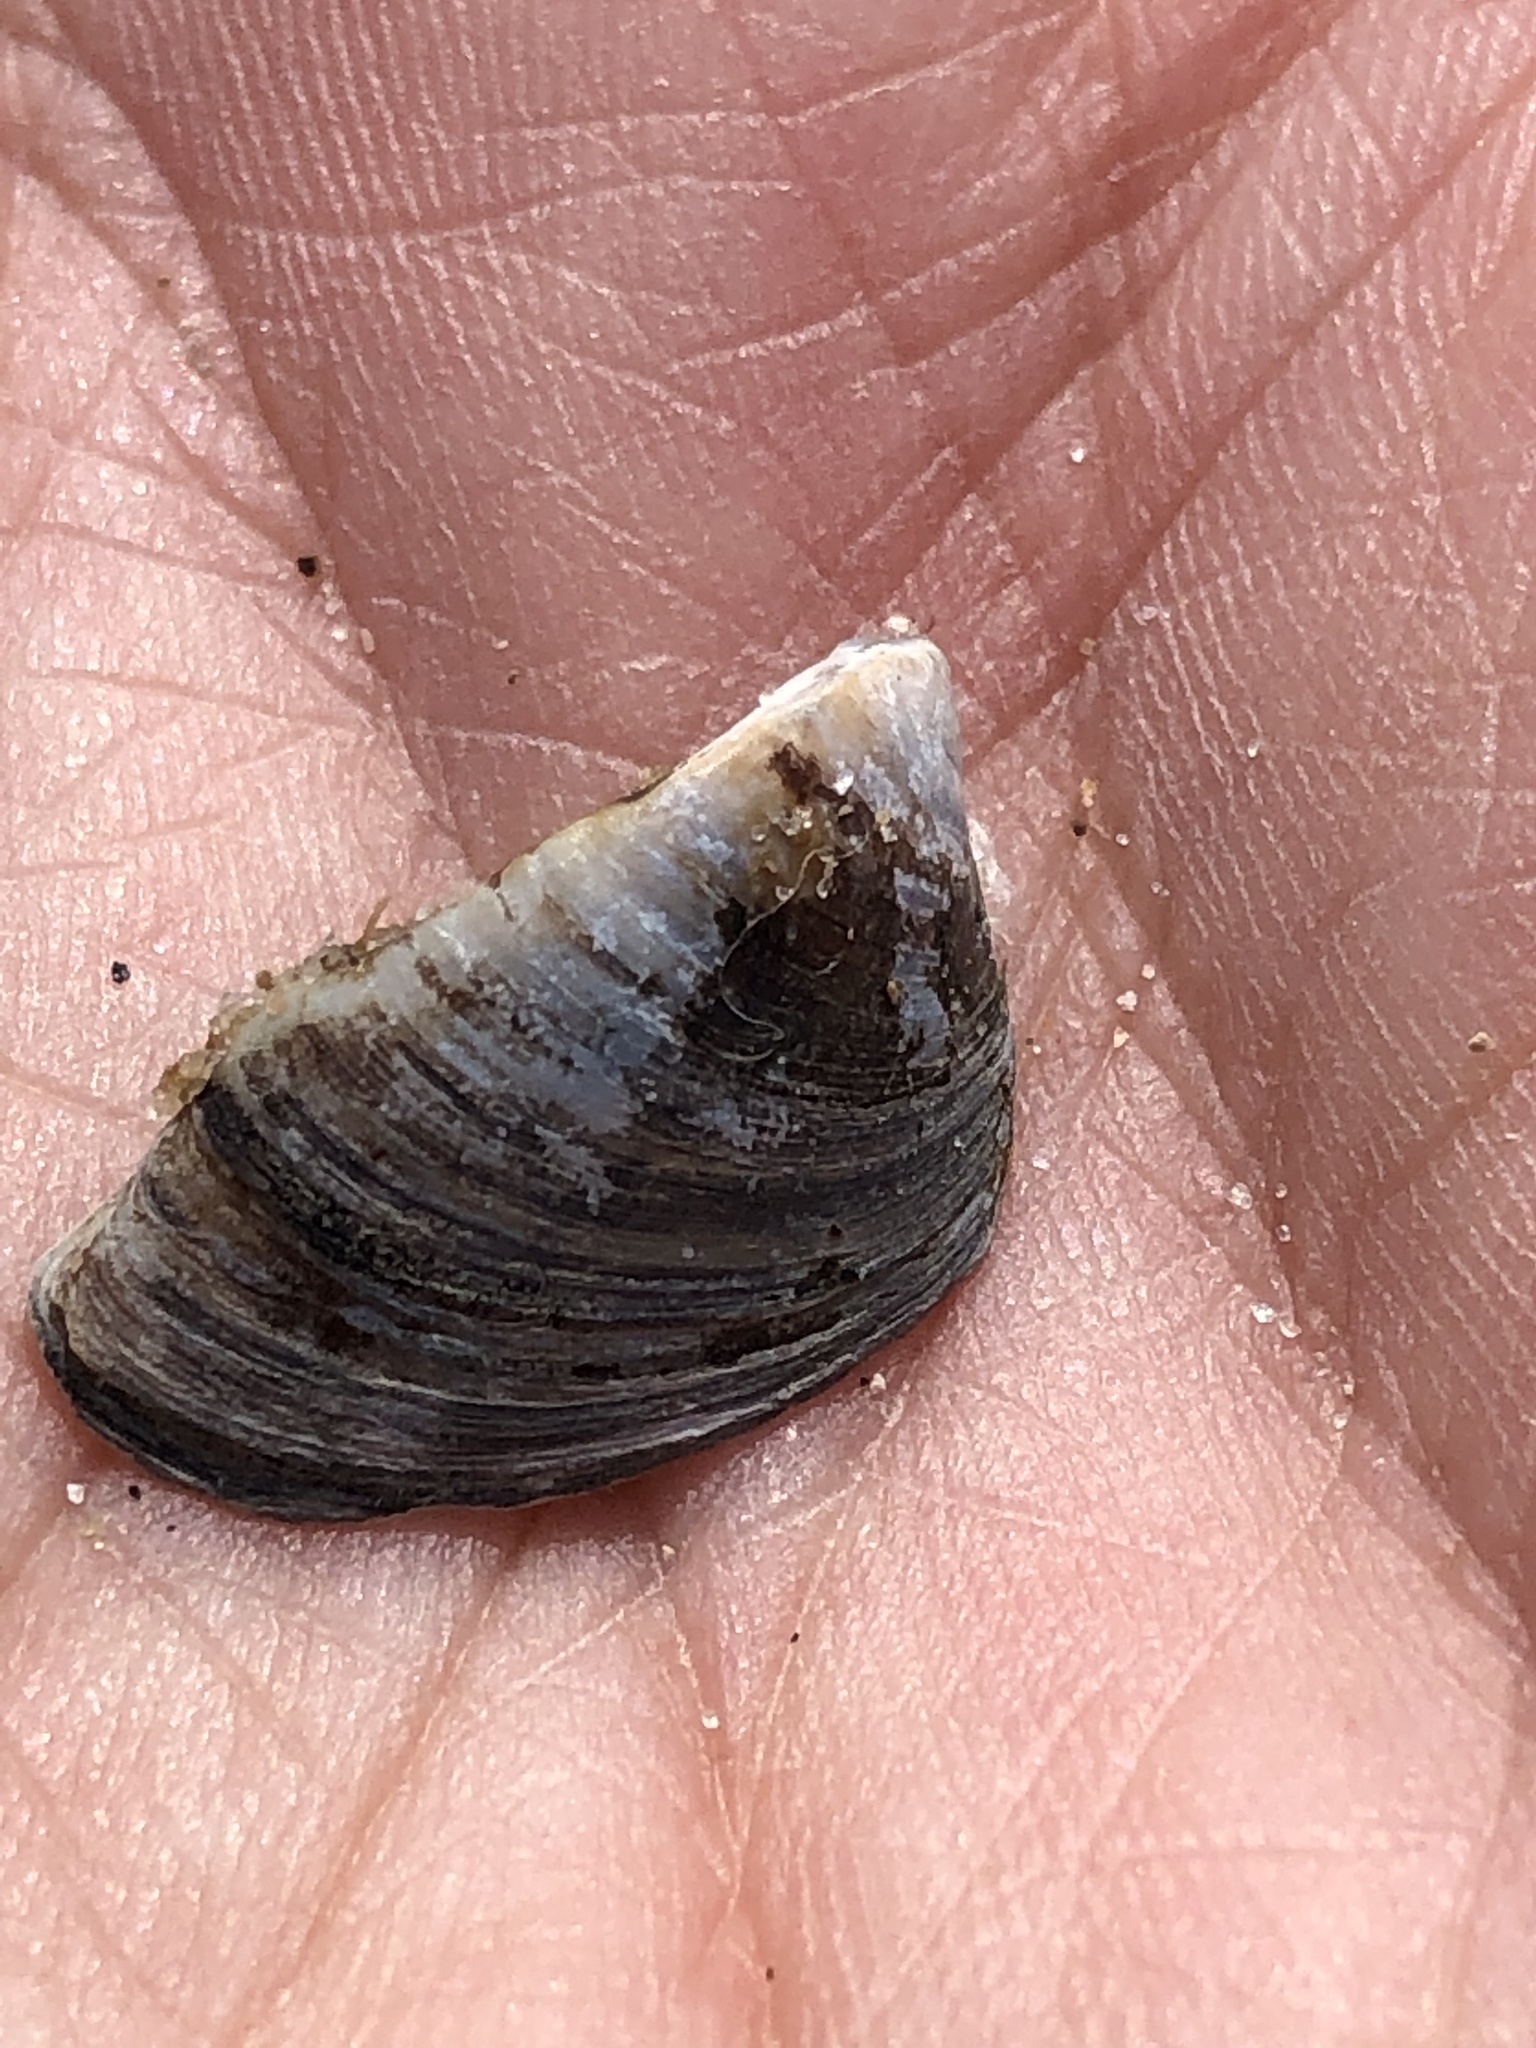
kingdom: Animalia
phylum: Mollusca
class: Bivalvia
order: Myida
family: Dreissenidae
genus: Dreissena
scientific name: Dreissena polymorpha
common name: Zebra mussel
